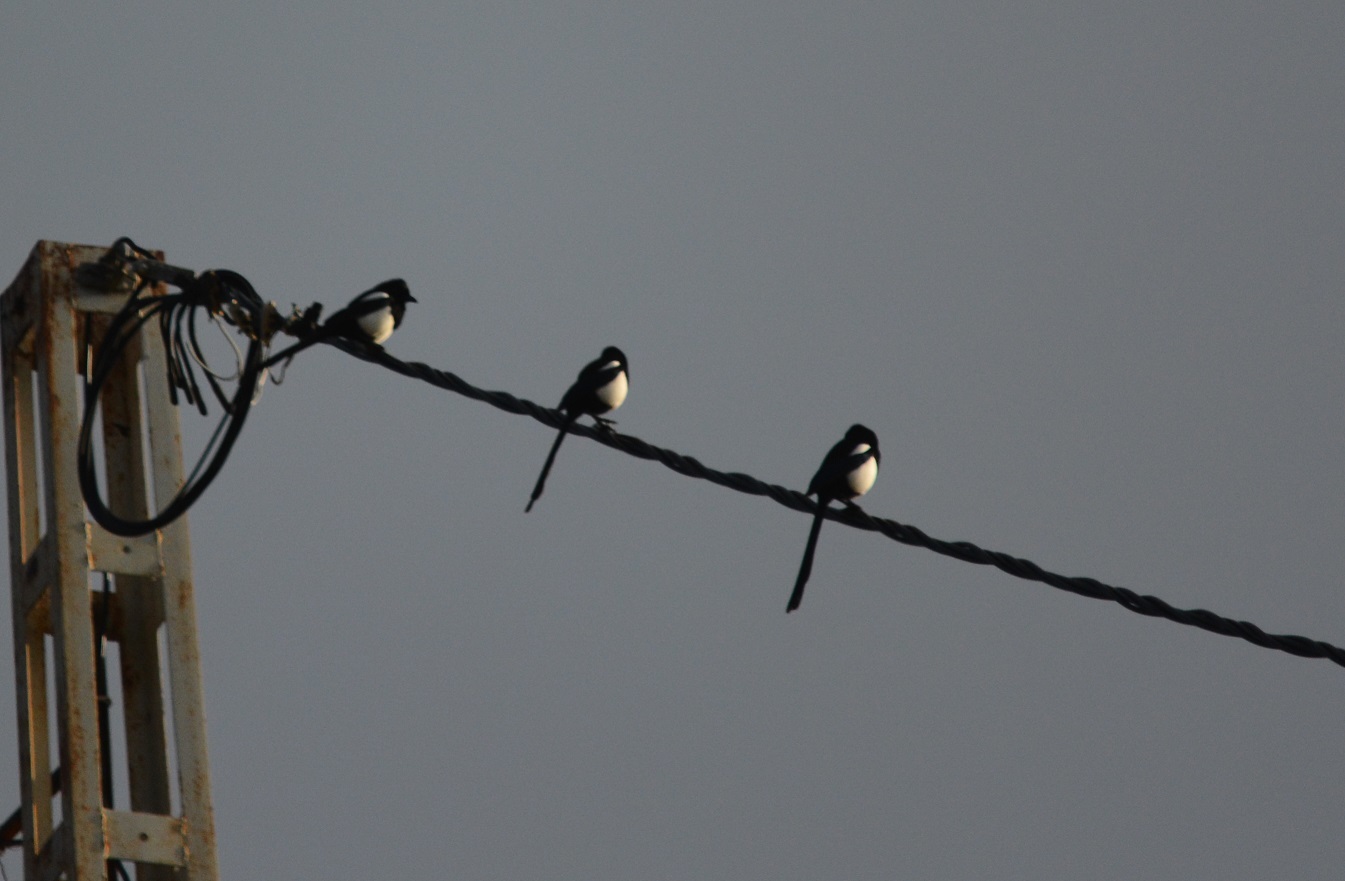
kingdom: Animalia
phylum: Chordata
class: Aves
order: Passeriformes
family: Corvidae
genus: Pica
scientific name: Pica mauritanica
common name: Maghreb magpie
